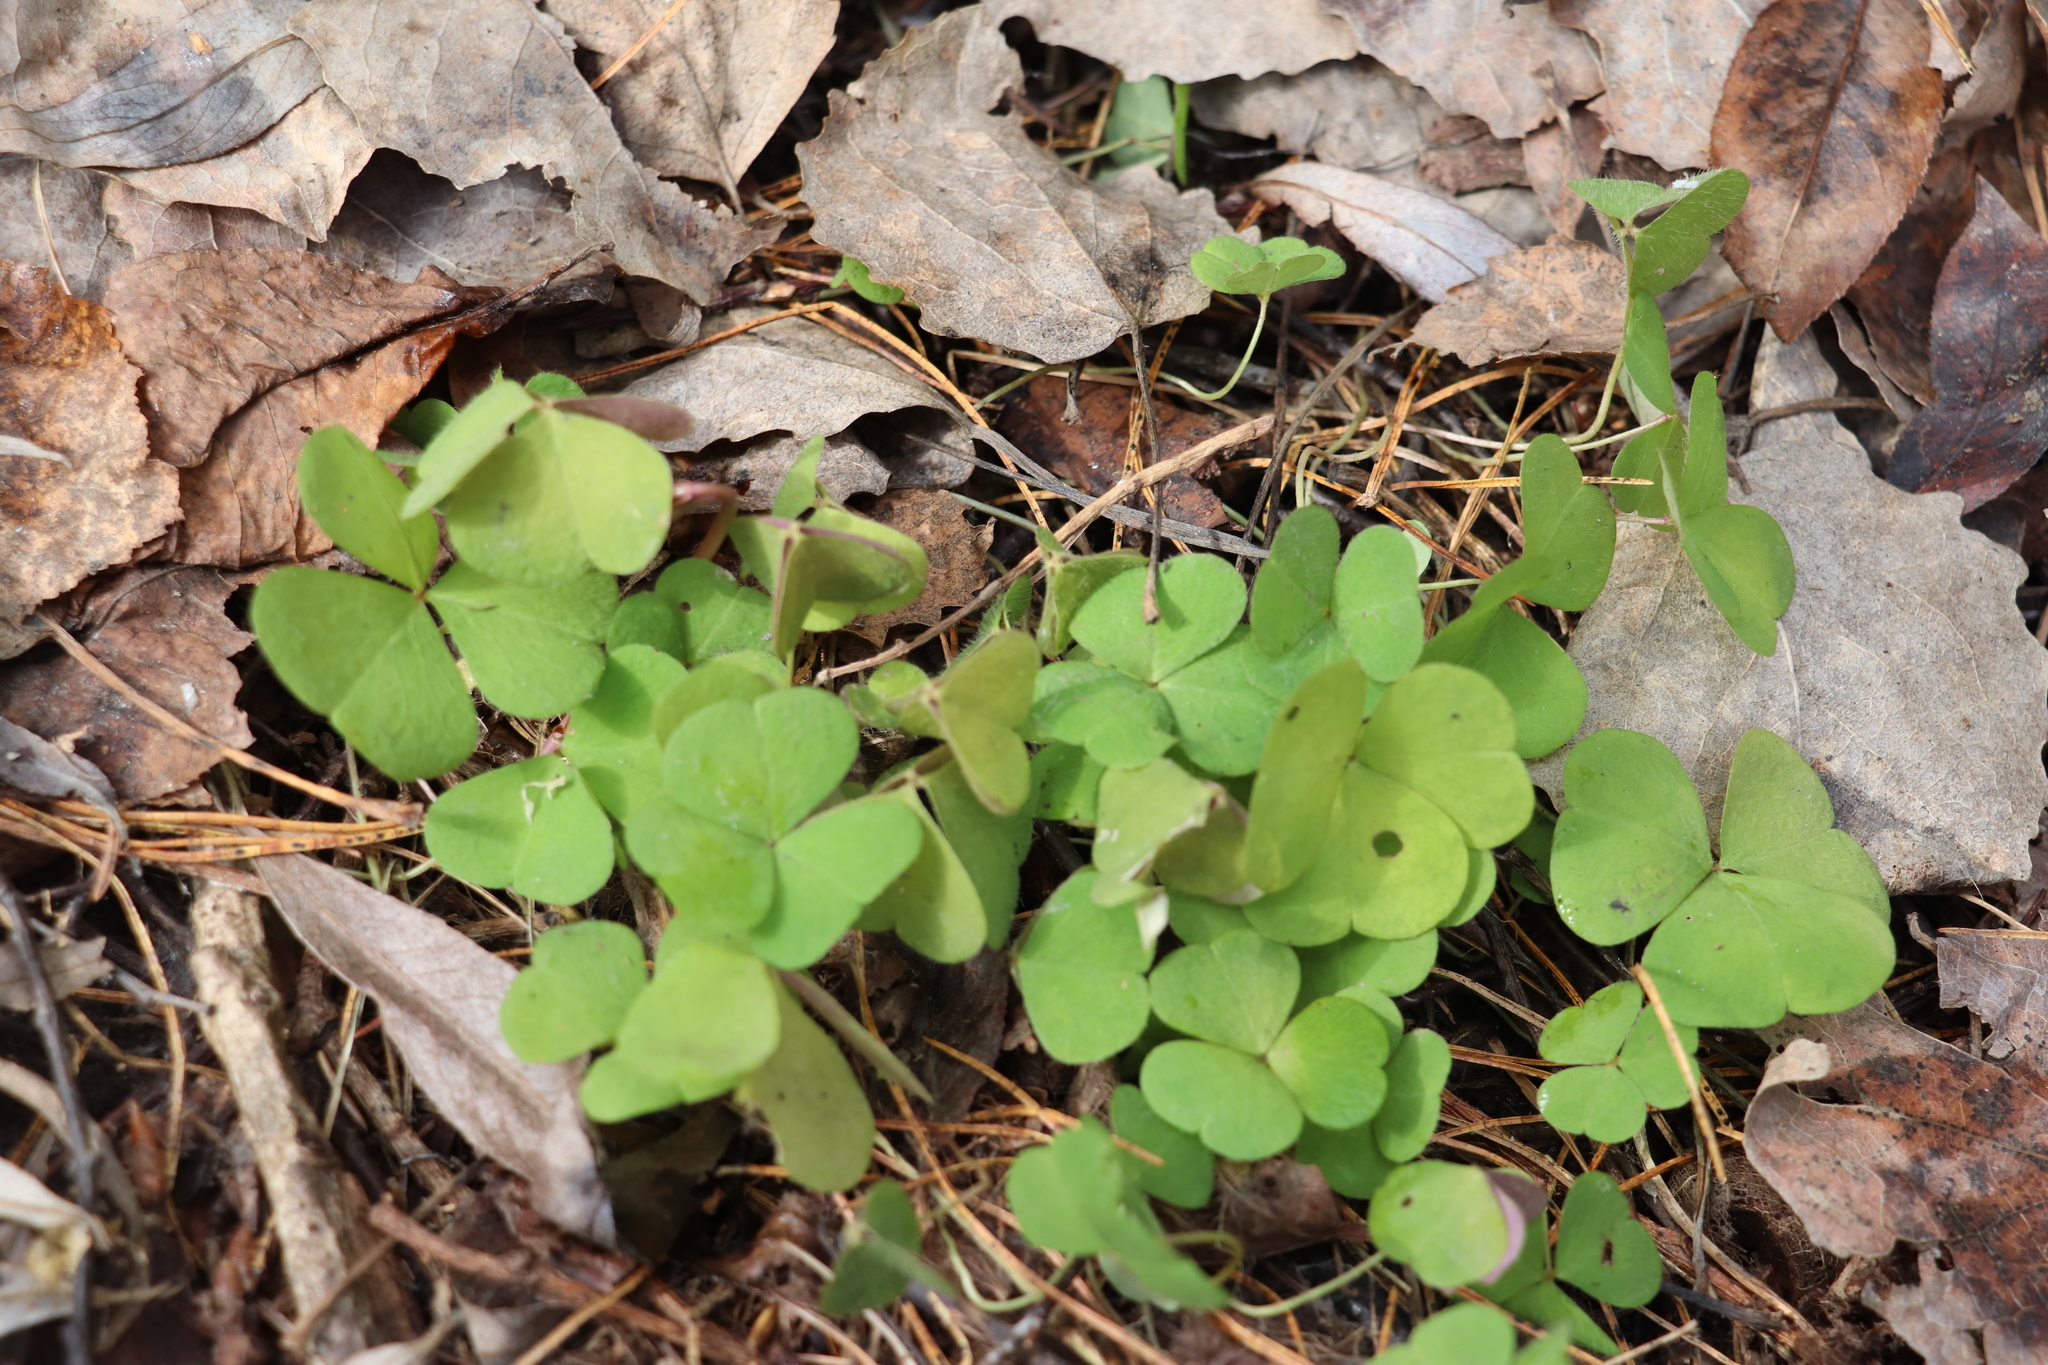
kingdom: Plantae
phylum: Tracheophyta
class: Magnoliopsida
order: Oxalidales
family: Oxalidaceae
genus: Oxalis
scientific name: Oxalis acetosella
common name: Wood-sorrel
